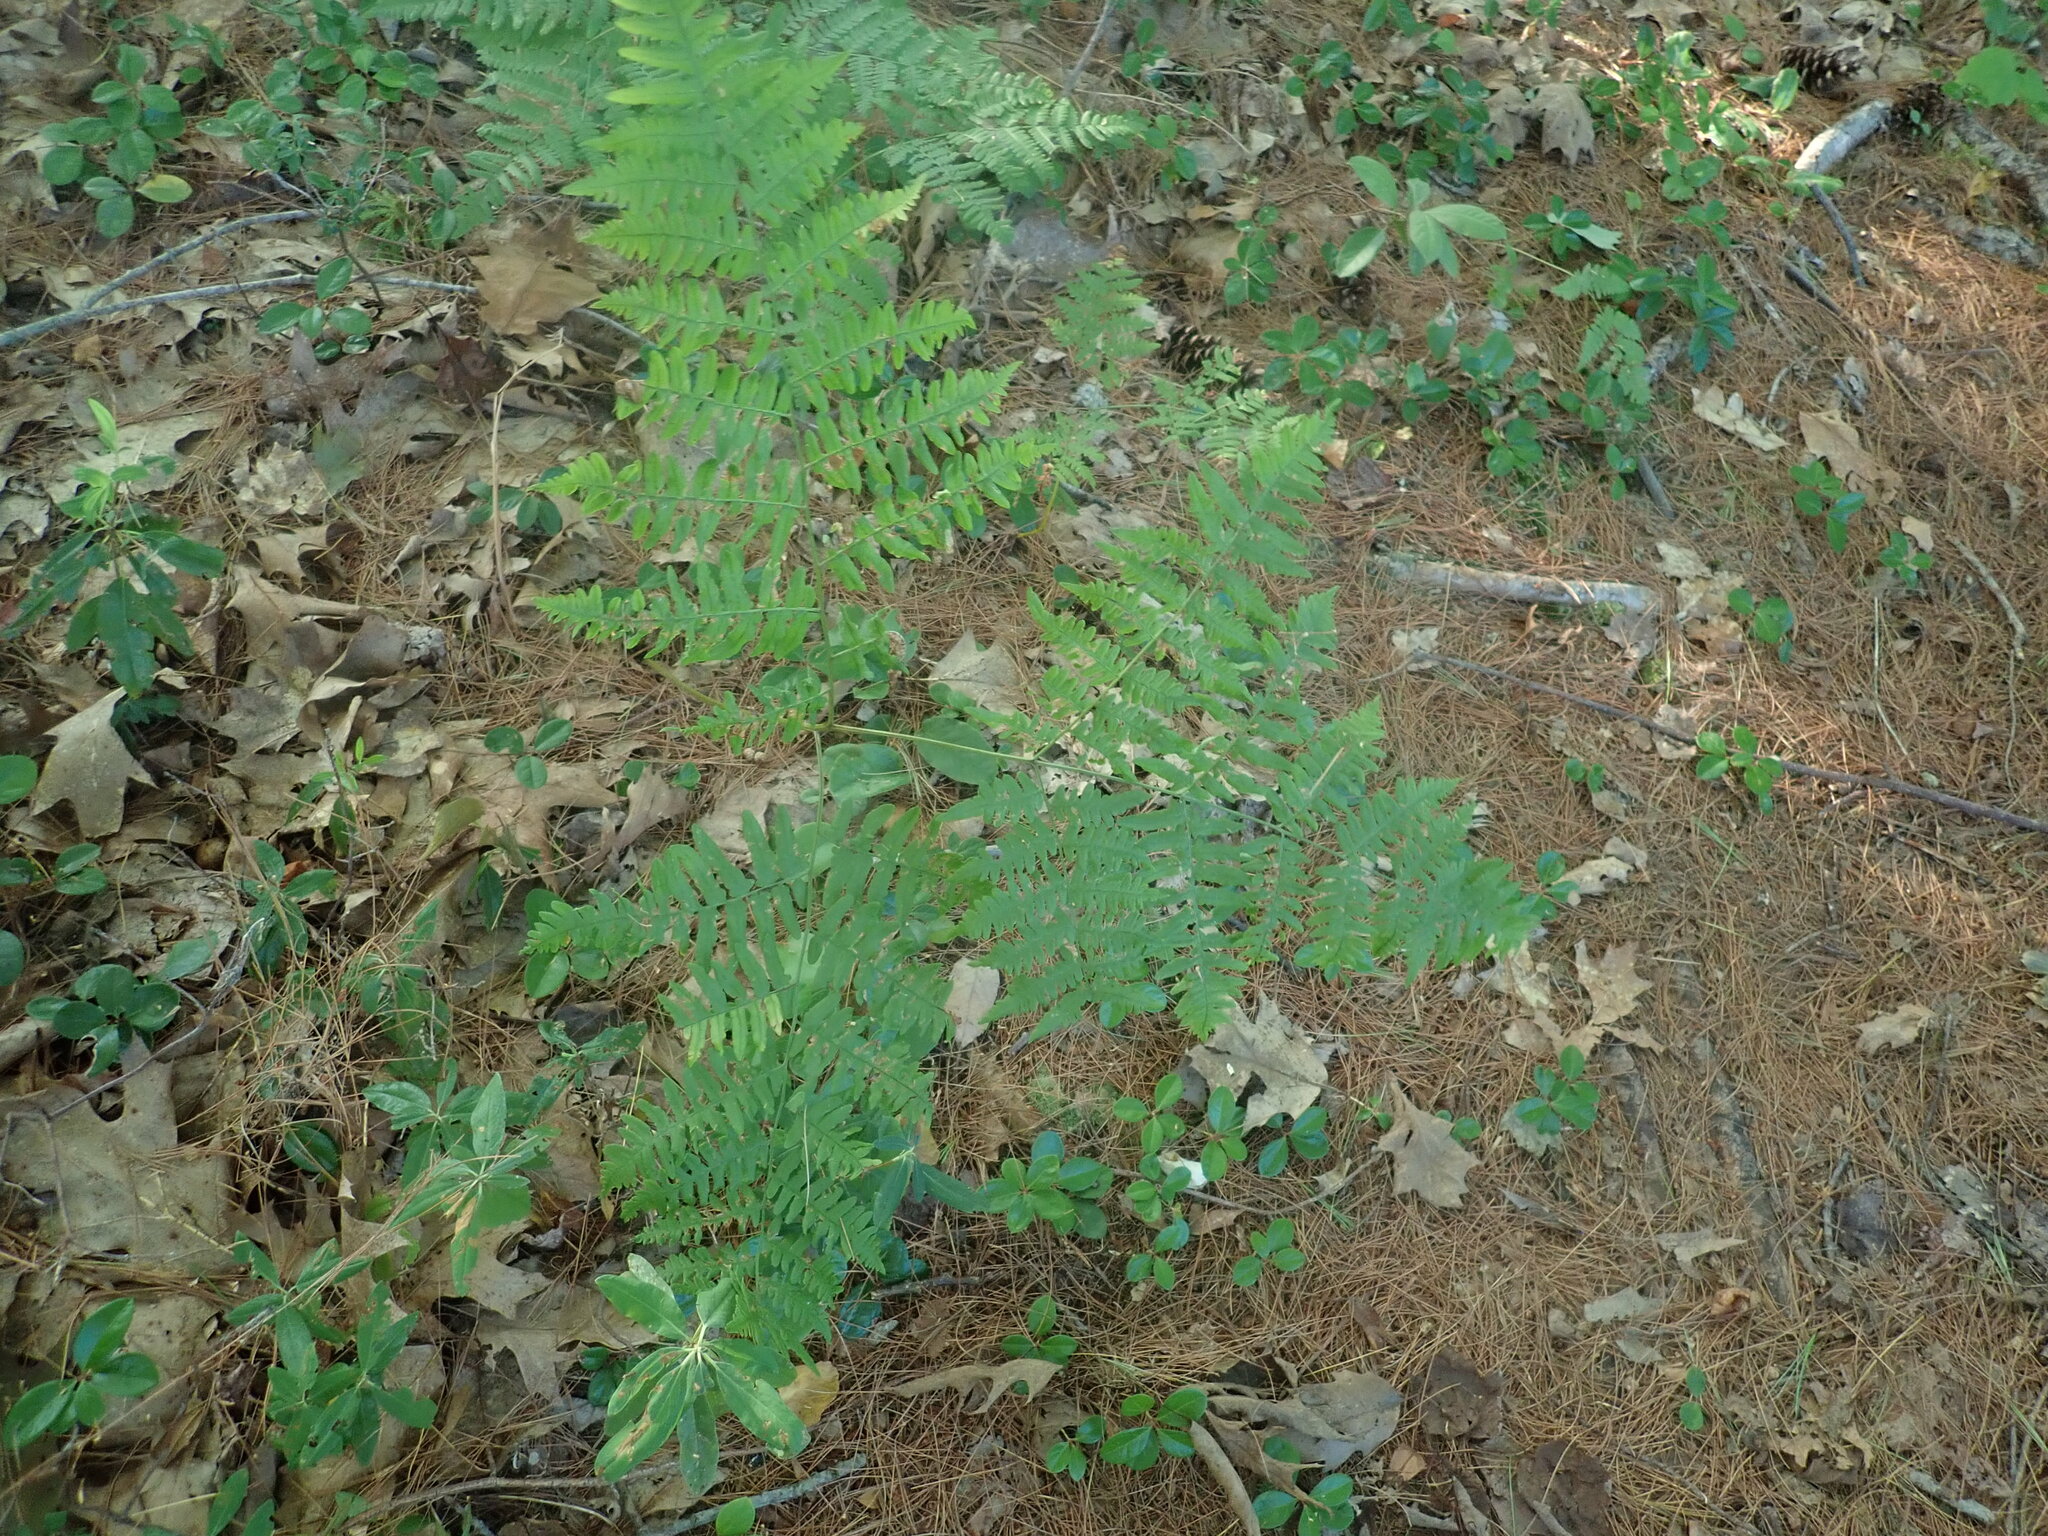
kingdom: Plantae
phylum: Tracheophyta
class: Polypodiopsida
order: Polypodiales
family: Dennstaedtiaceae
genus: Pteridium
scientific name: Pteridium aquilinum
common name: Bracken
